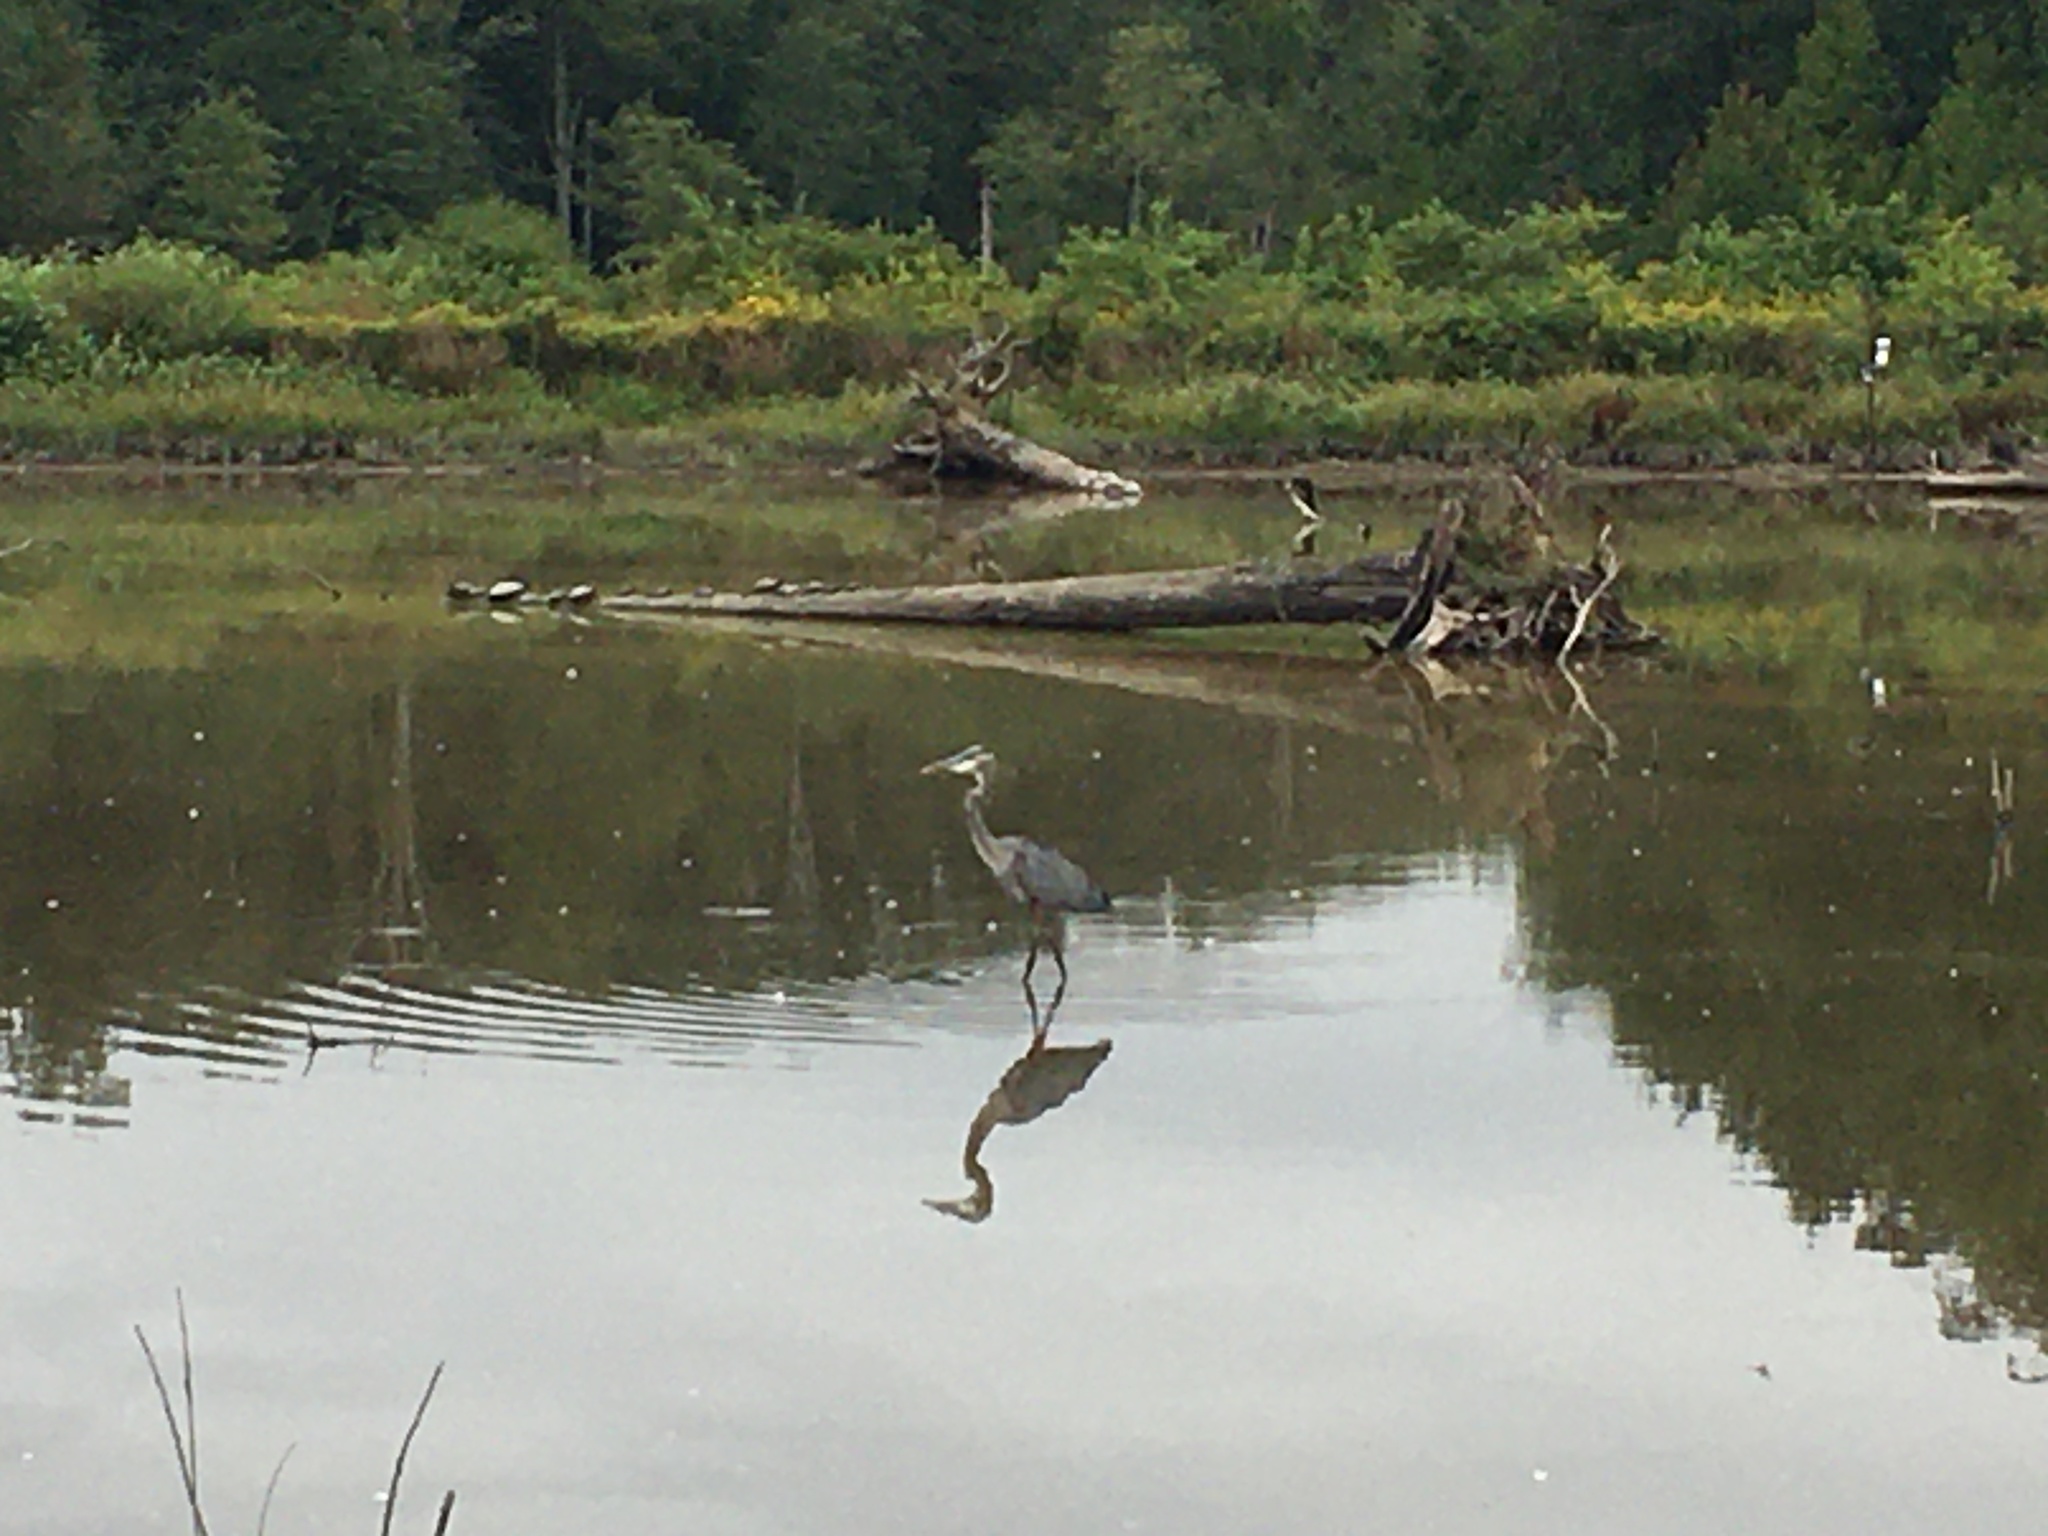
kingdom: Animalia
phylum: Chordata
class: Aves
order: Pelecaniformes
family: Ardeidae
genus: Ardea
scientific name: Ardea herodias
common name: Great blue heron
